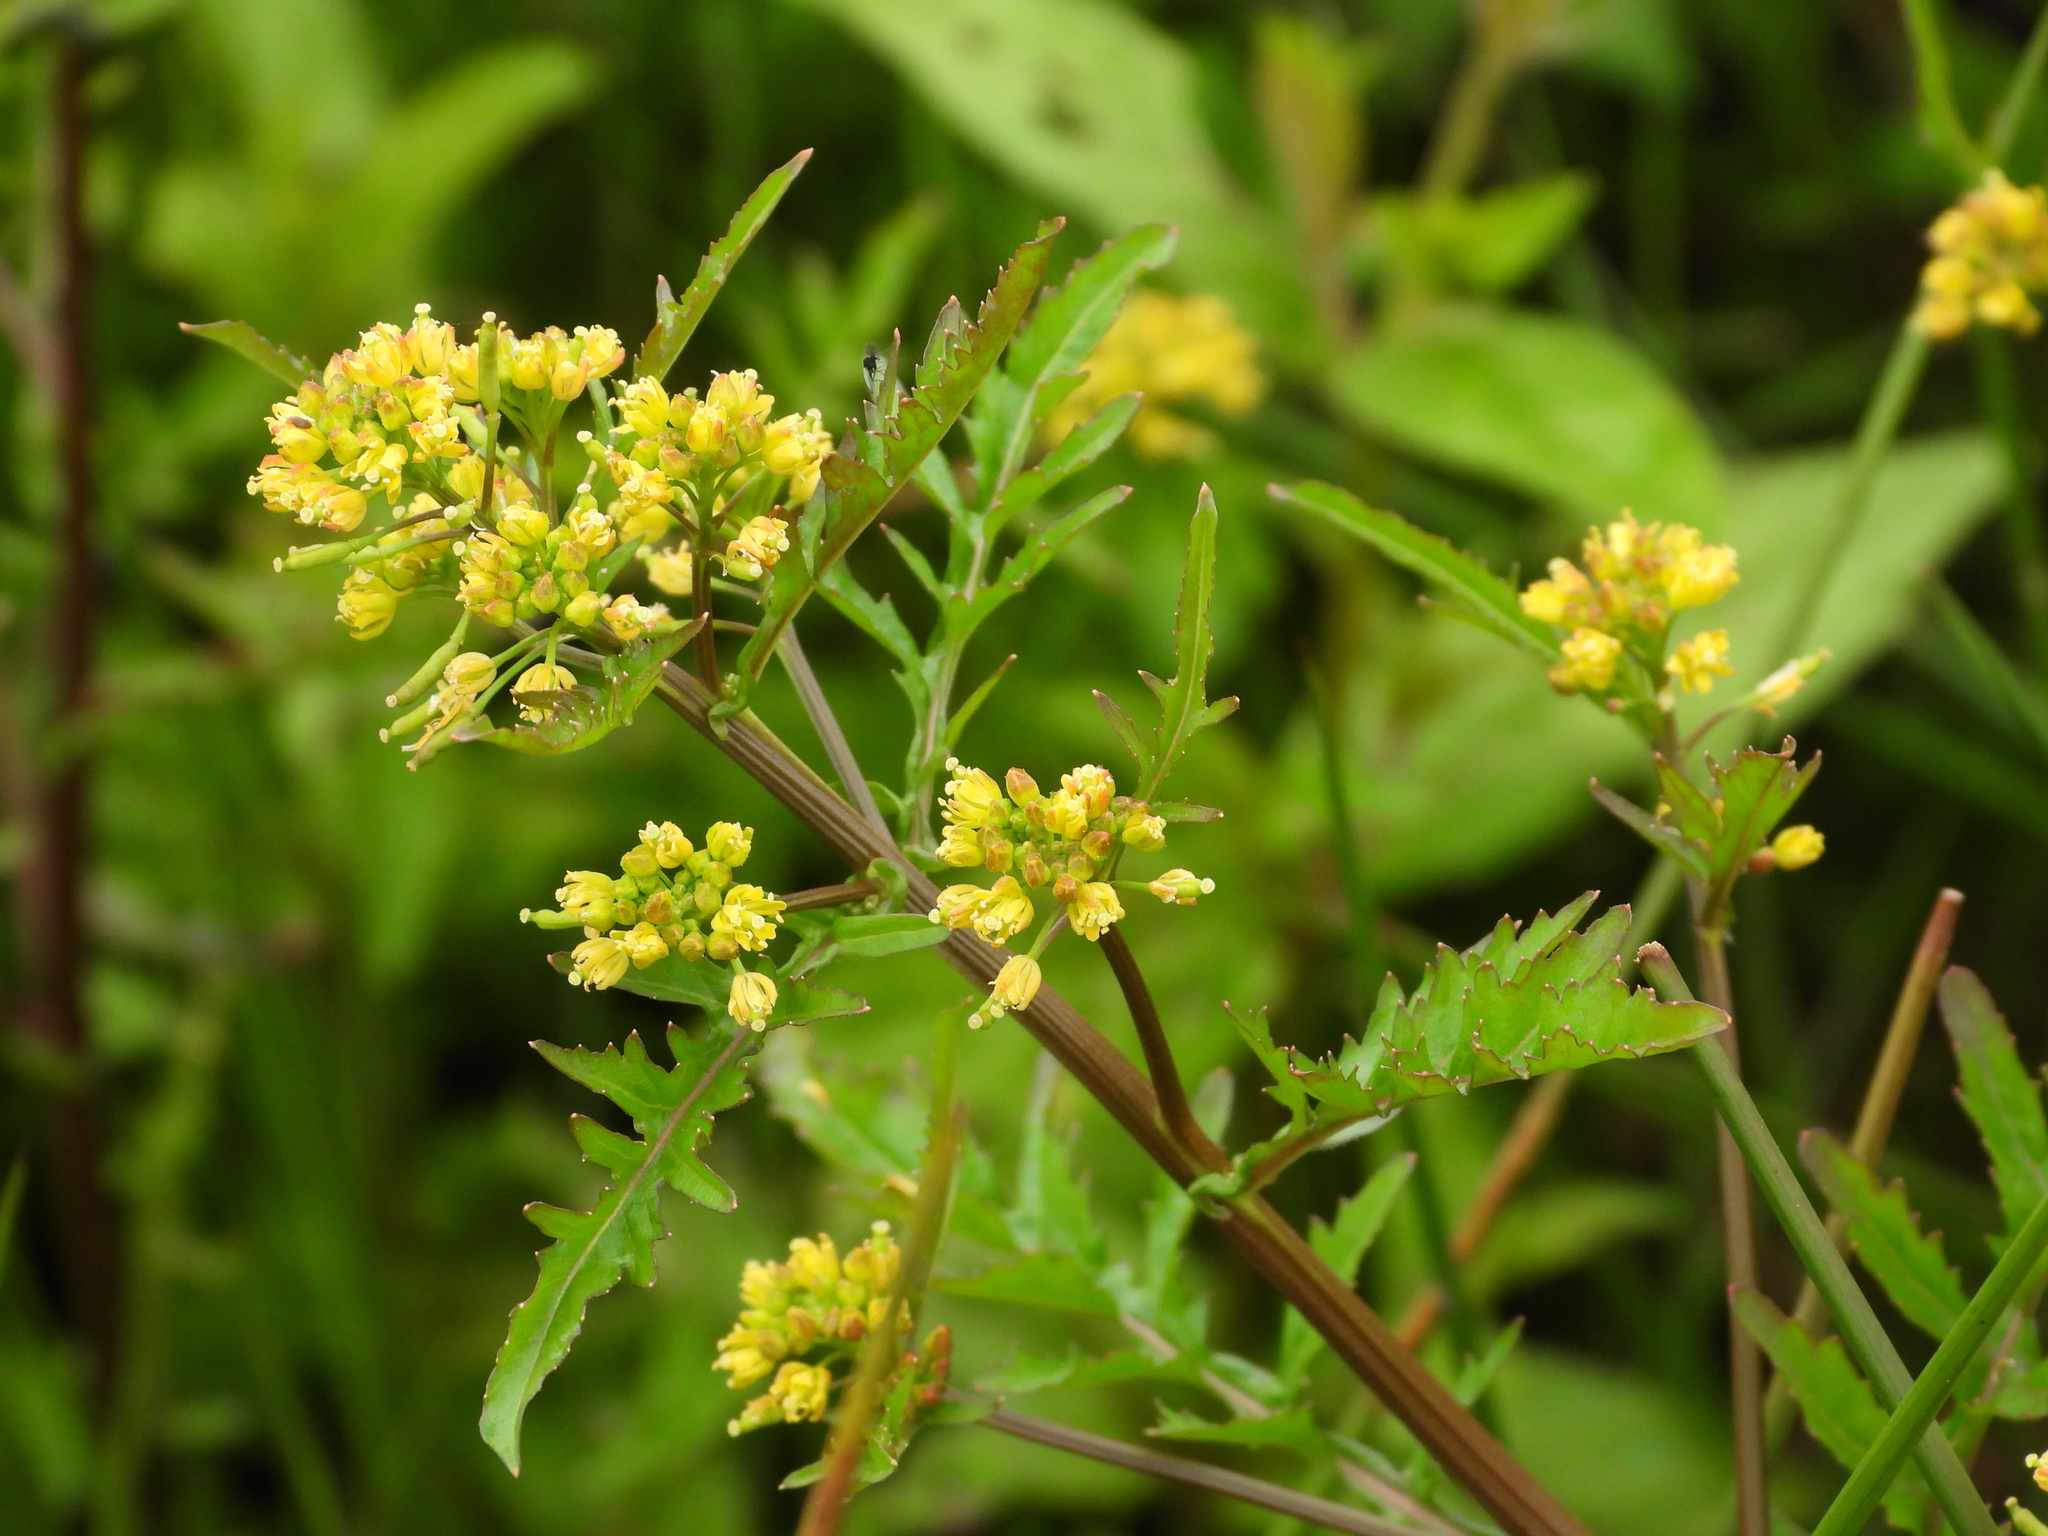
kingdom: Plantae
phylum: Tracheophyta
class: Magnoliopsida
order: Brassicales
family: Brassicaceae
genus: Rorippa
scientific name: Rorippa palustris
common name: Marsh yellow-cress
